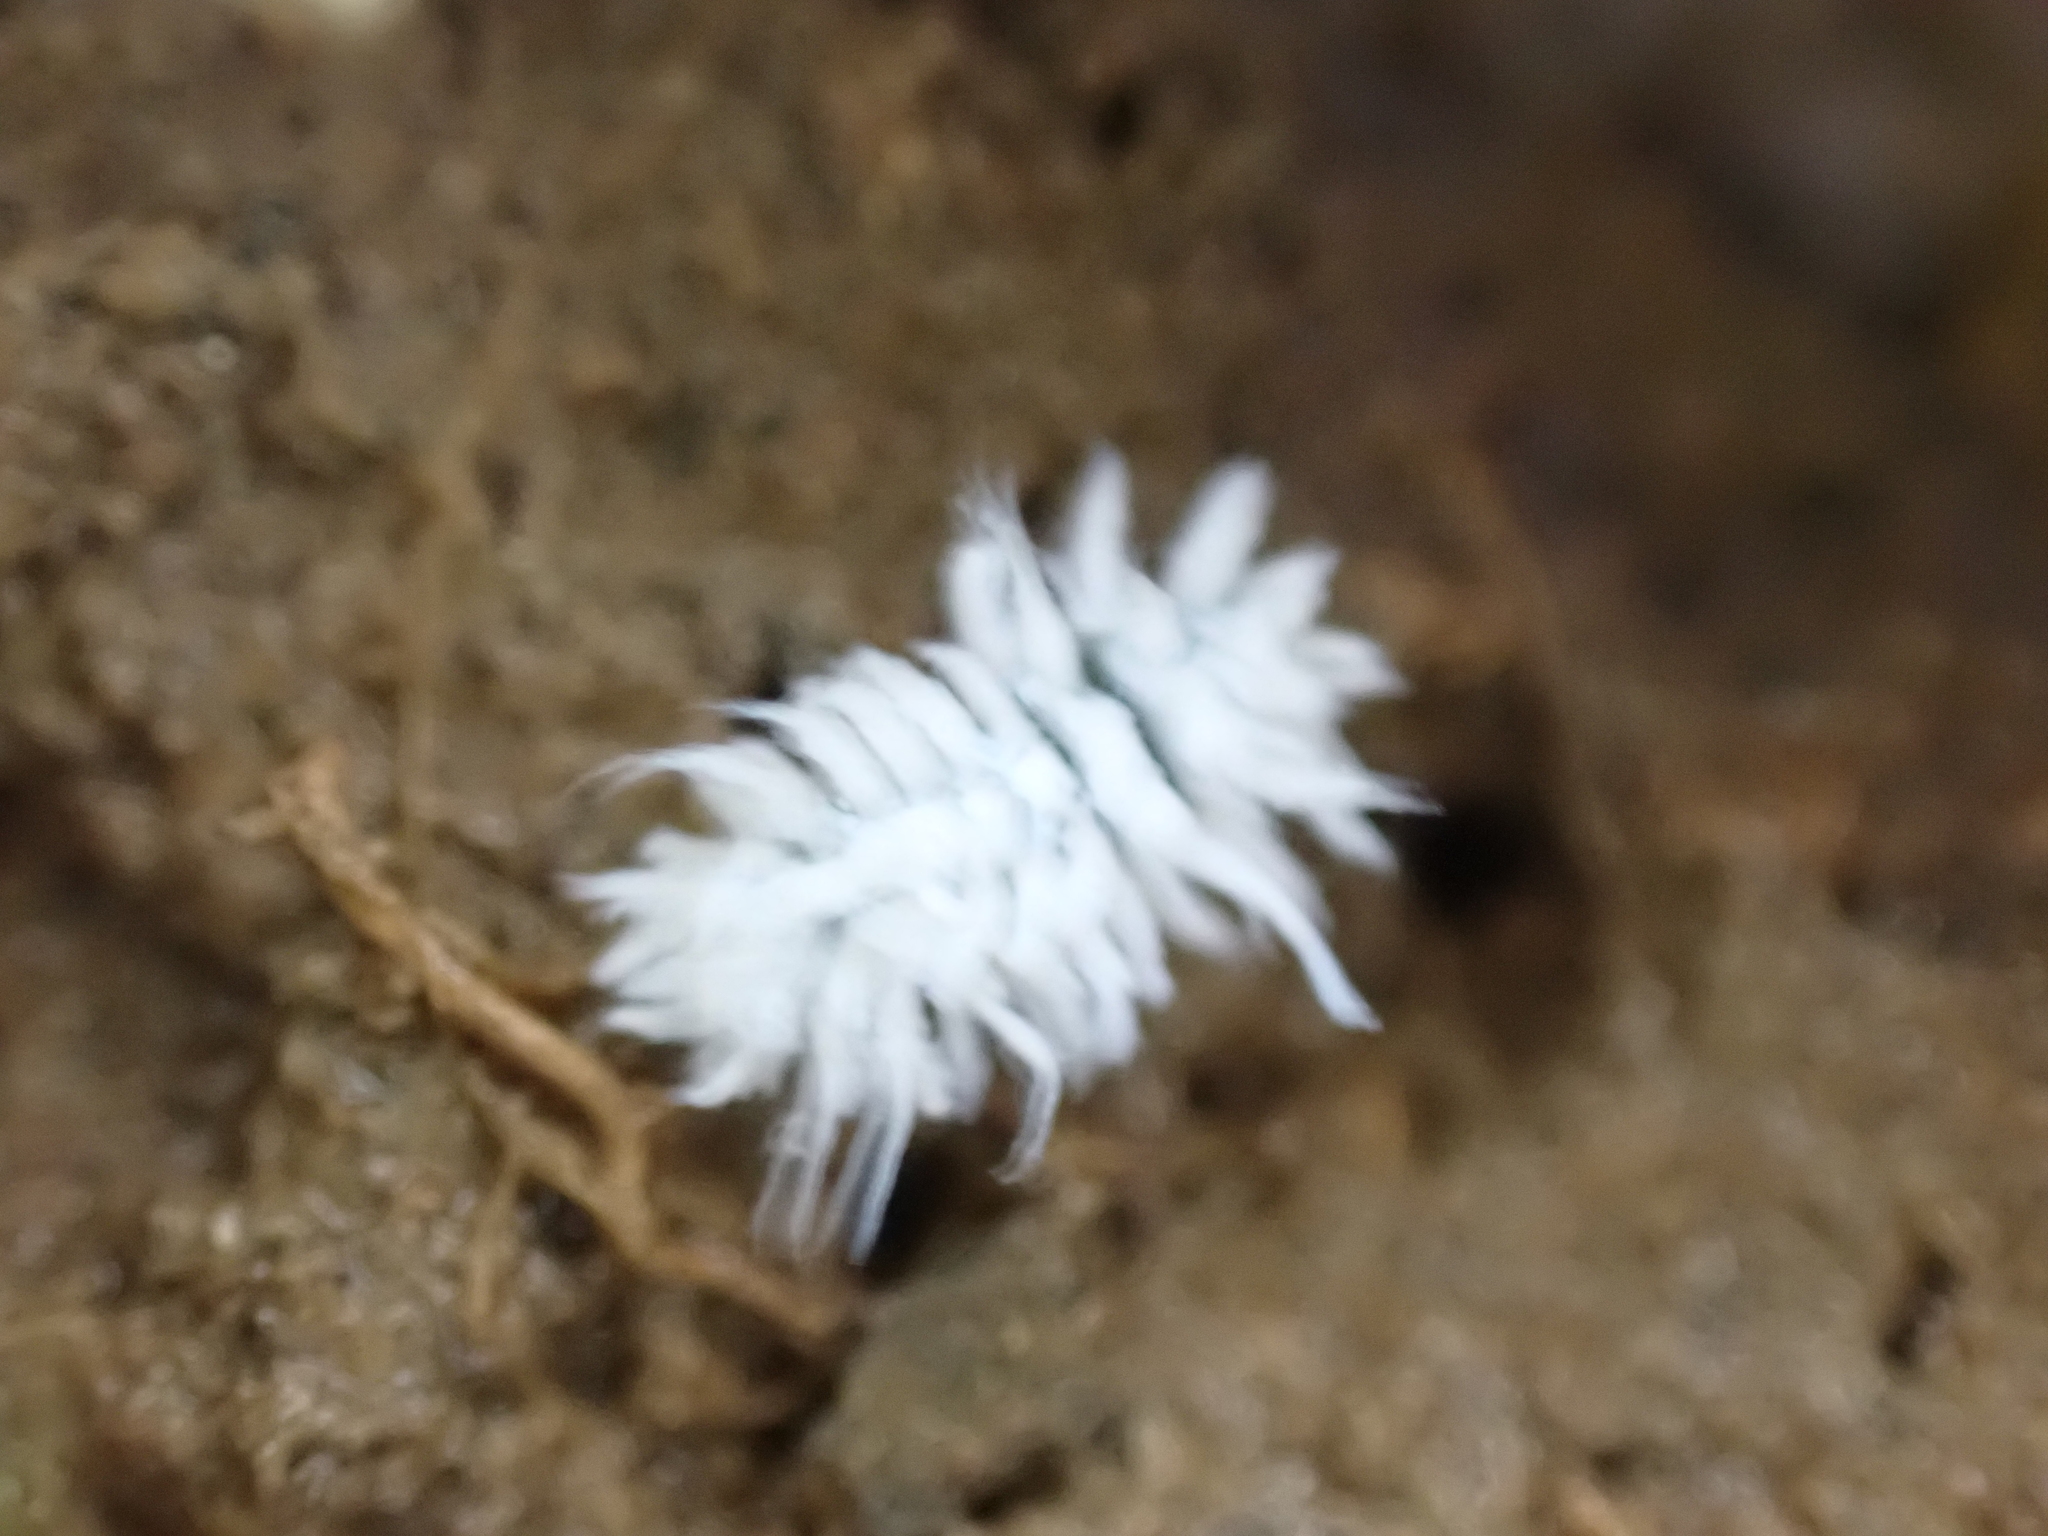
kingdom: Animalia
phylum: Arthropoda
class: Insecta
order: Coleoptera
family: Coccinellidae
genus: Cryptolaemus
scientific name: Cryptolaemus montrouzieri
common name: Mealybug destroyer
